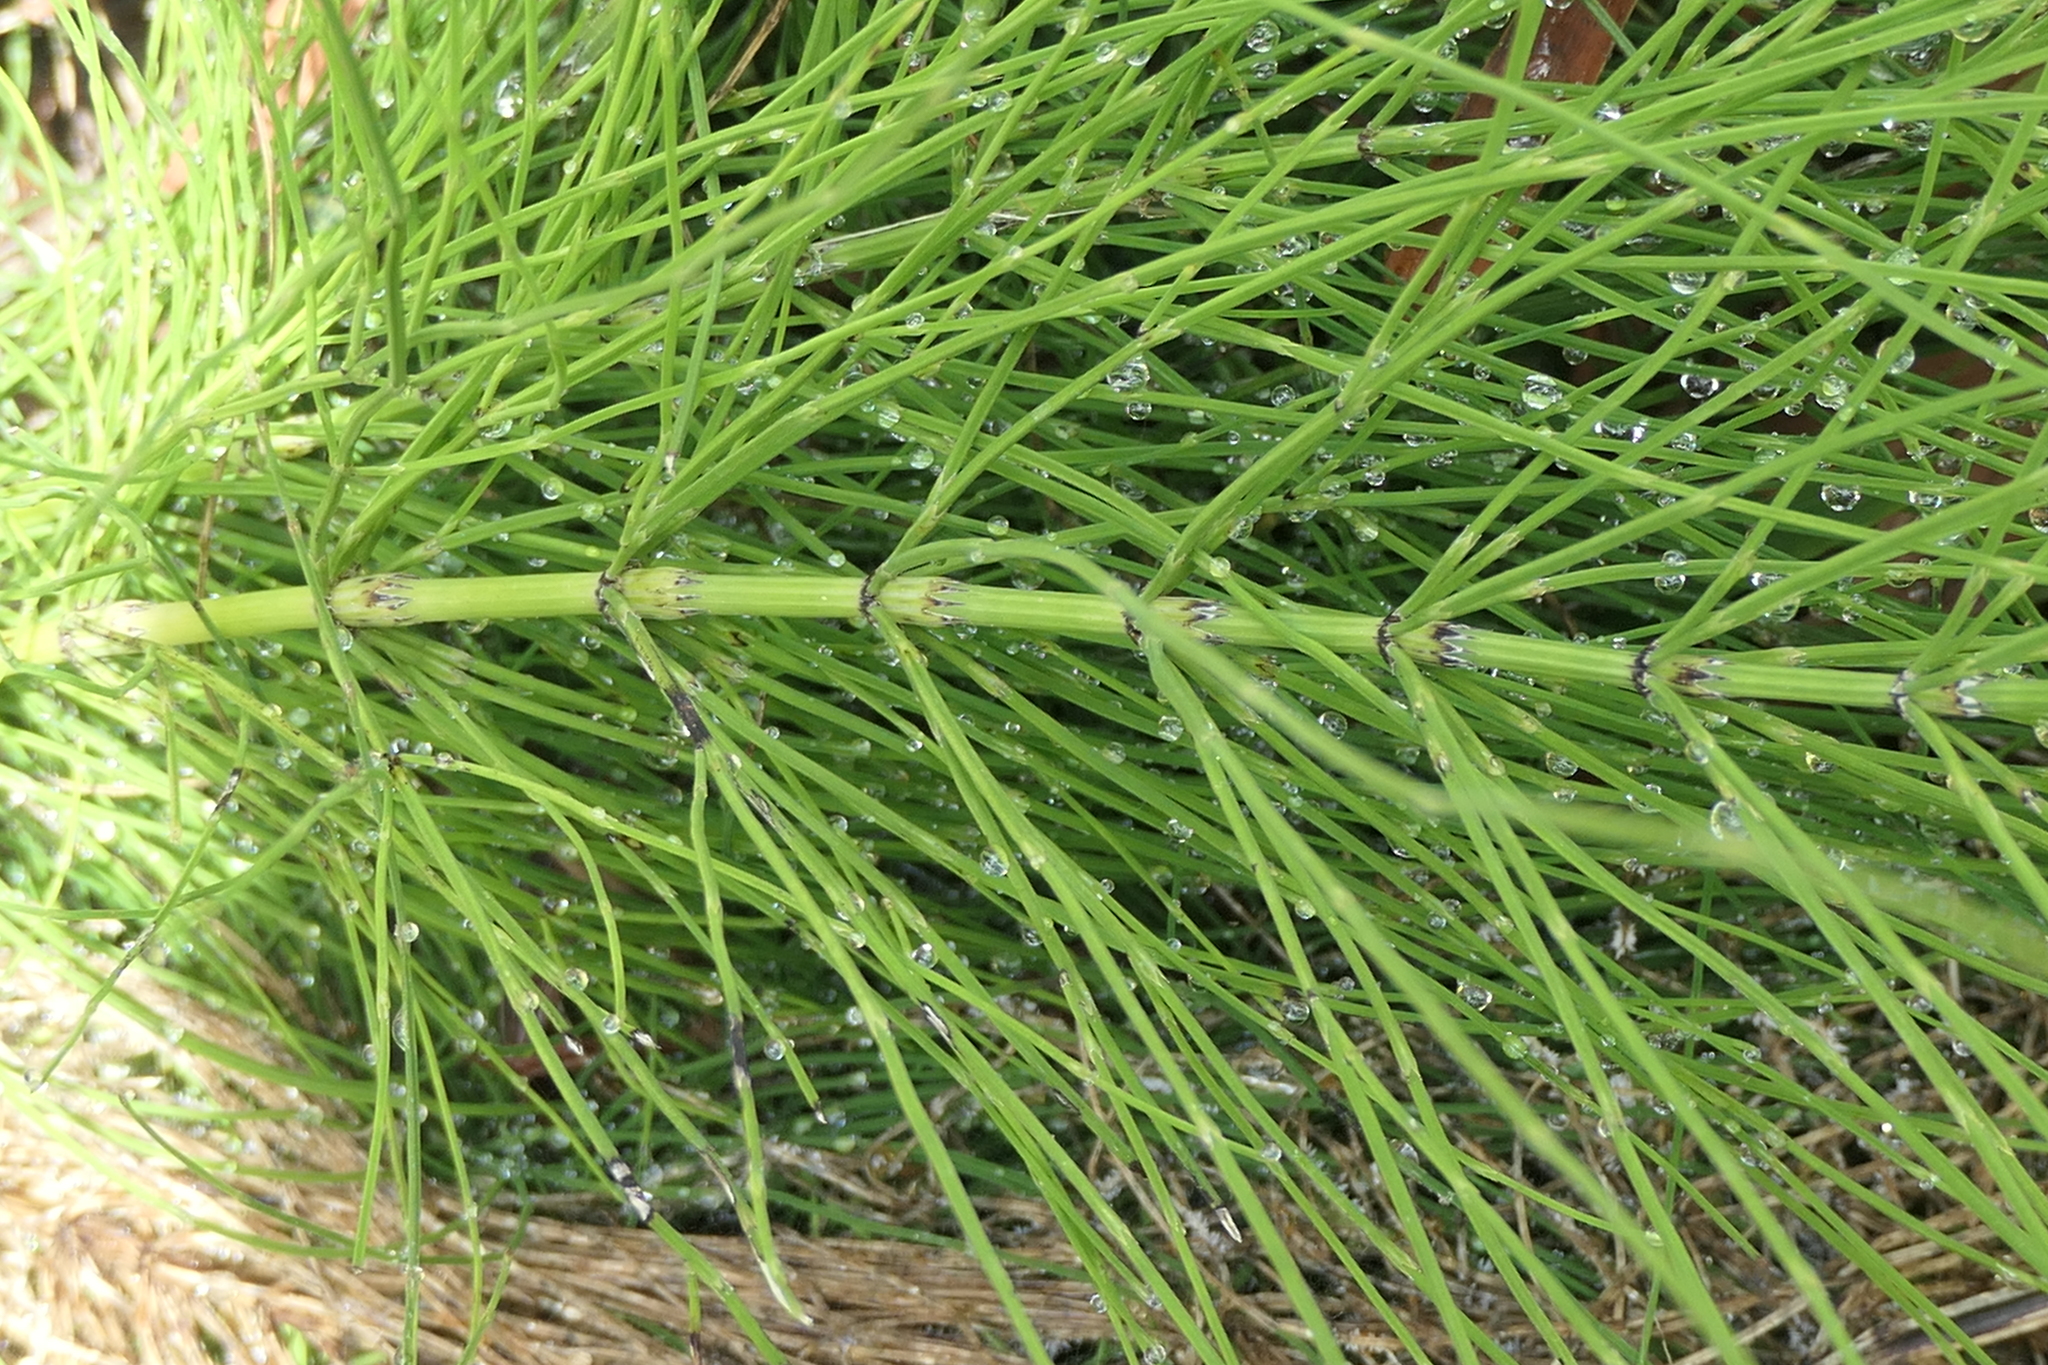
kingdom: Plantae
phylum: Tracheophyta
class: Polypodiopsida
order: Equisetales
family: Equisetaceae
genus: Equisetum
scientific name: Equisetum arvense
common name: Field horsetail
